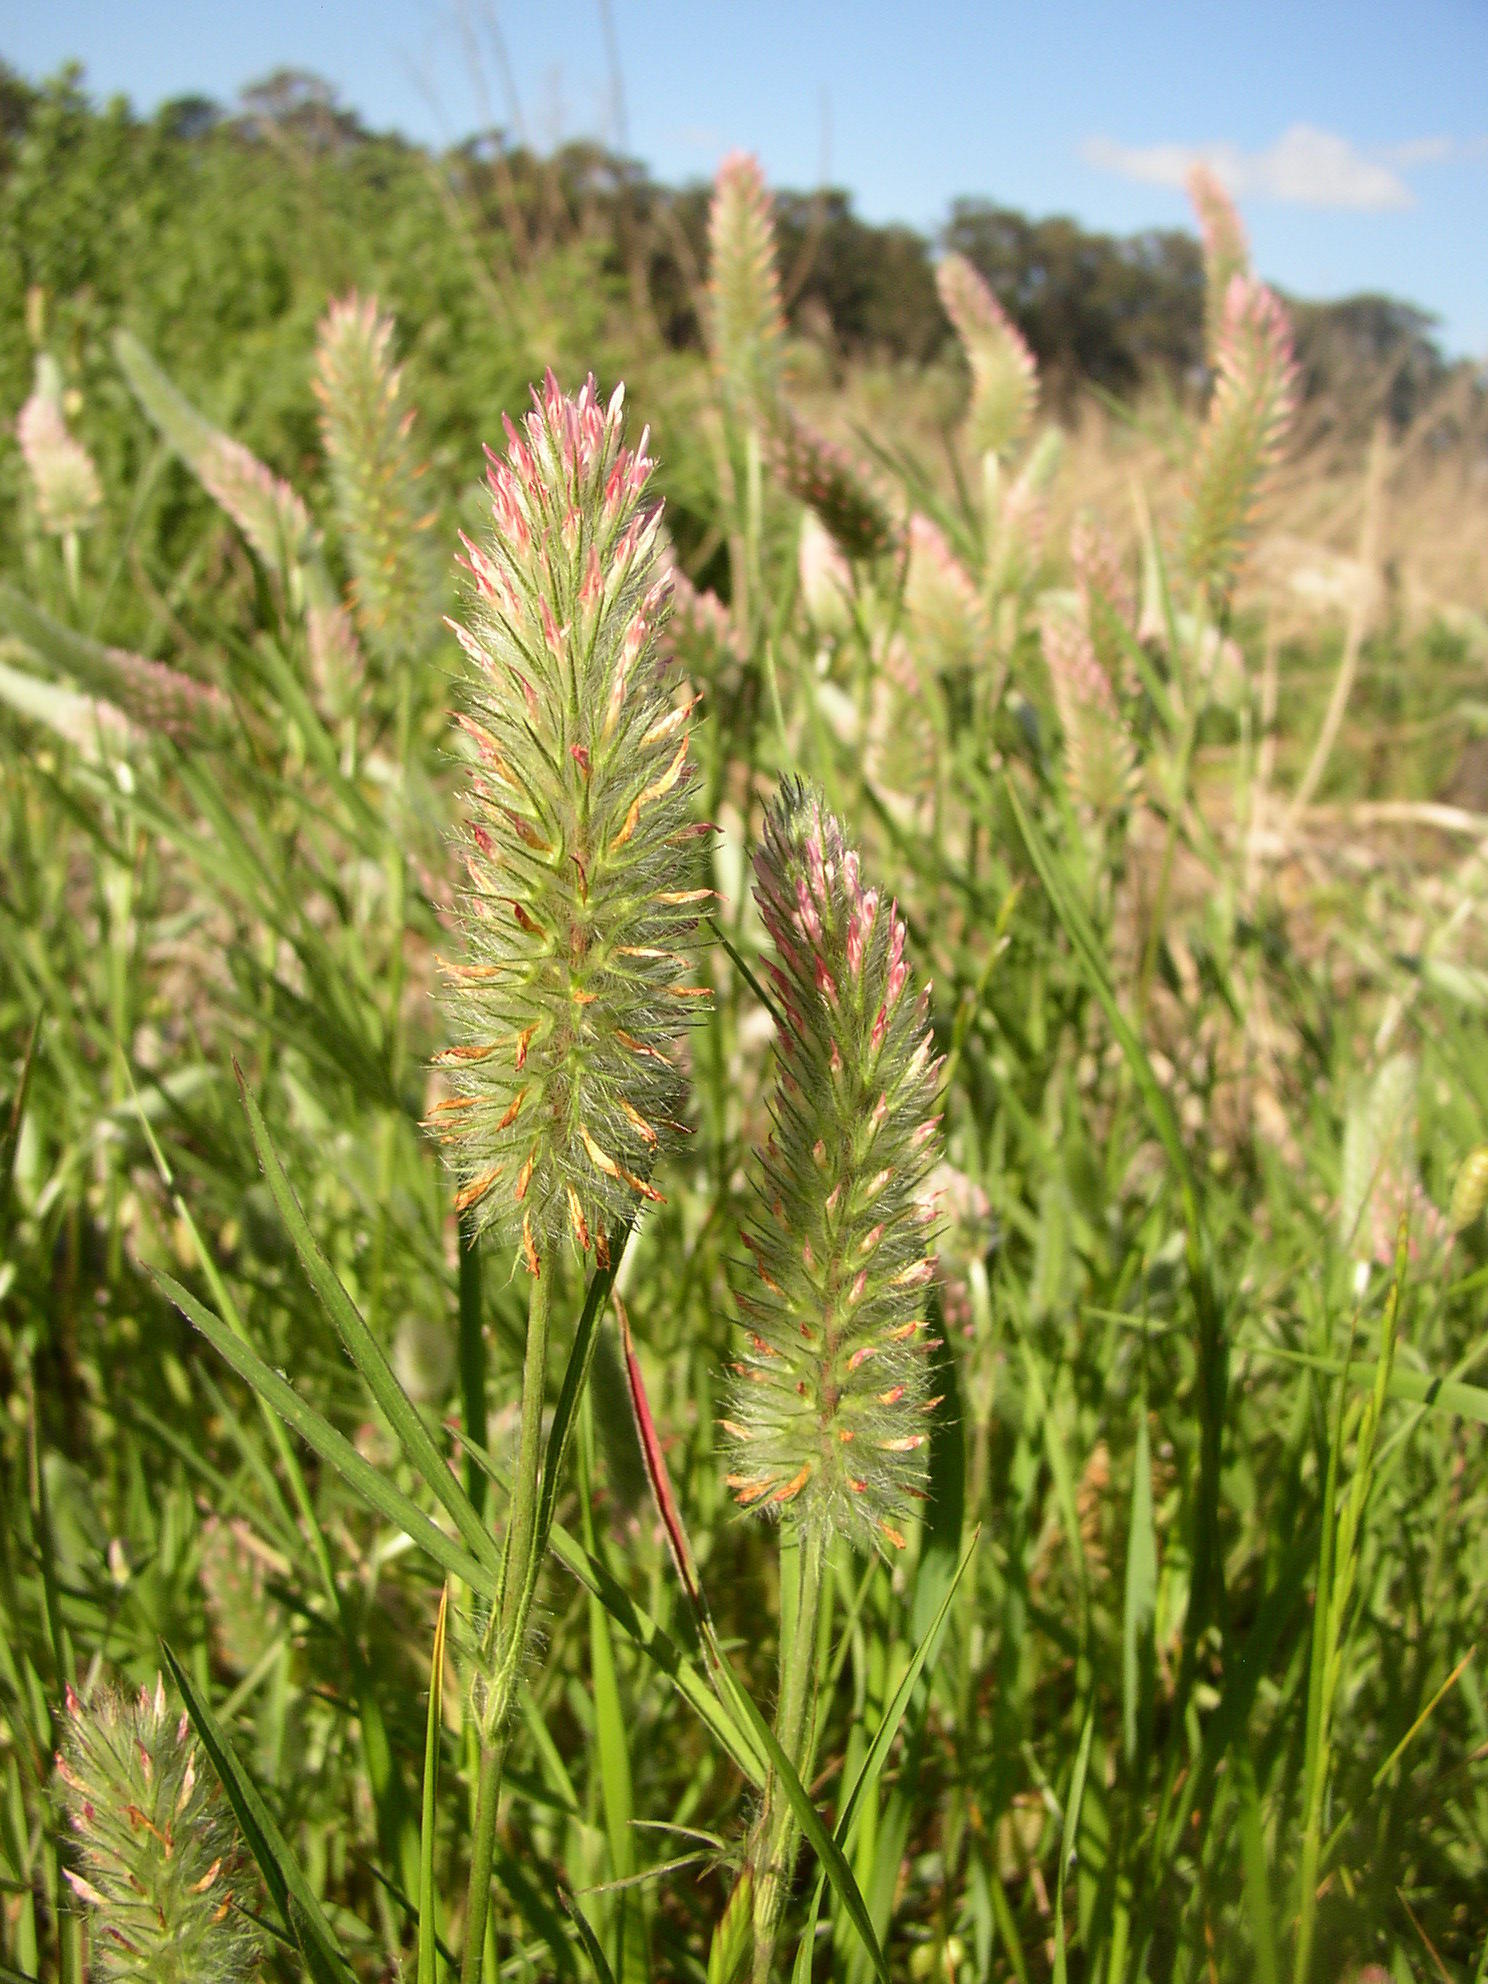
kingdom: Plantae
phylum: Tracheophyta
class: Magnoliopsida
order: Fabales
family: Fabaceae
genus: Trifolium
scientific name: Trifolium angustifolium
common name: Narrow clover
